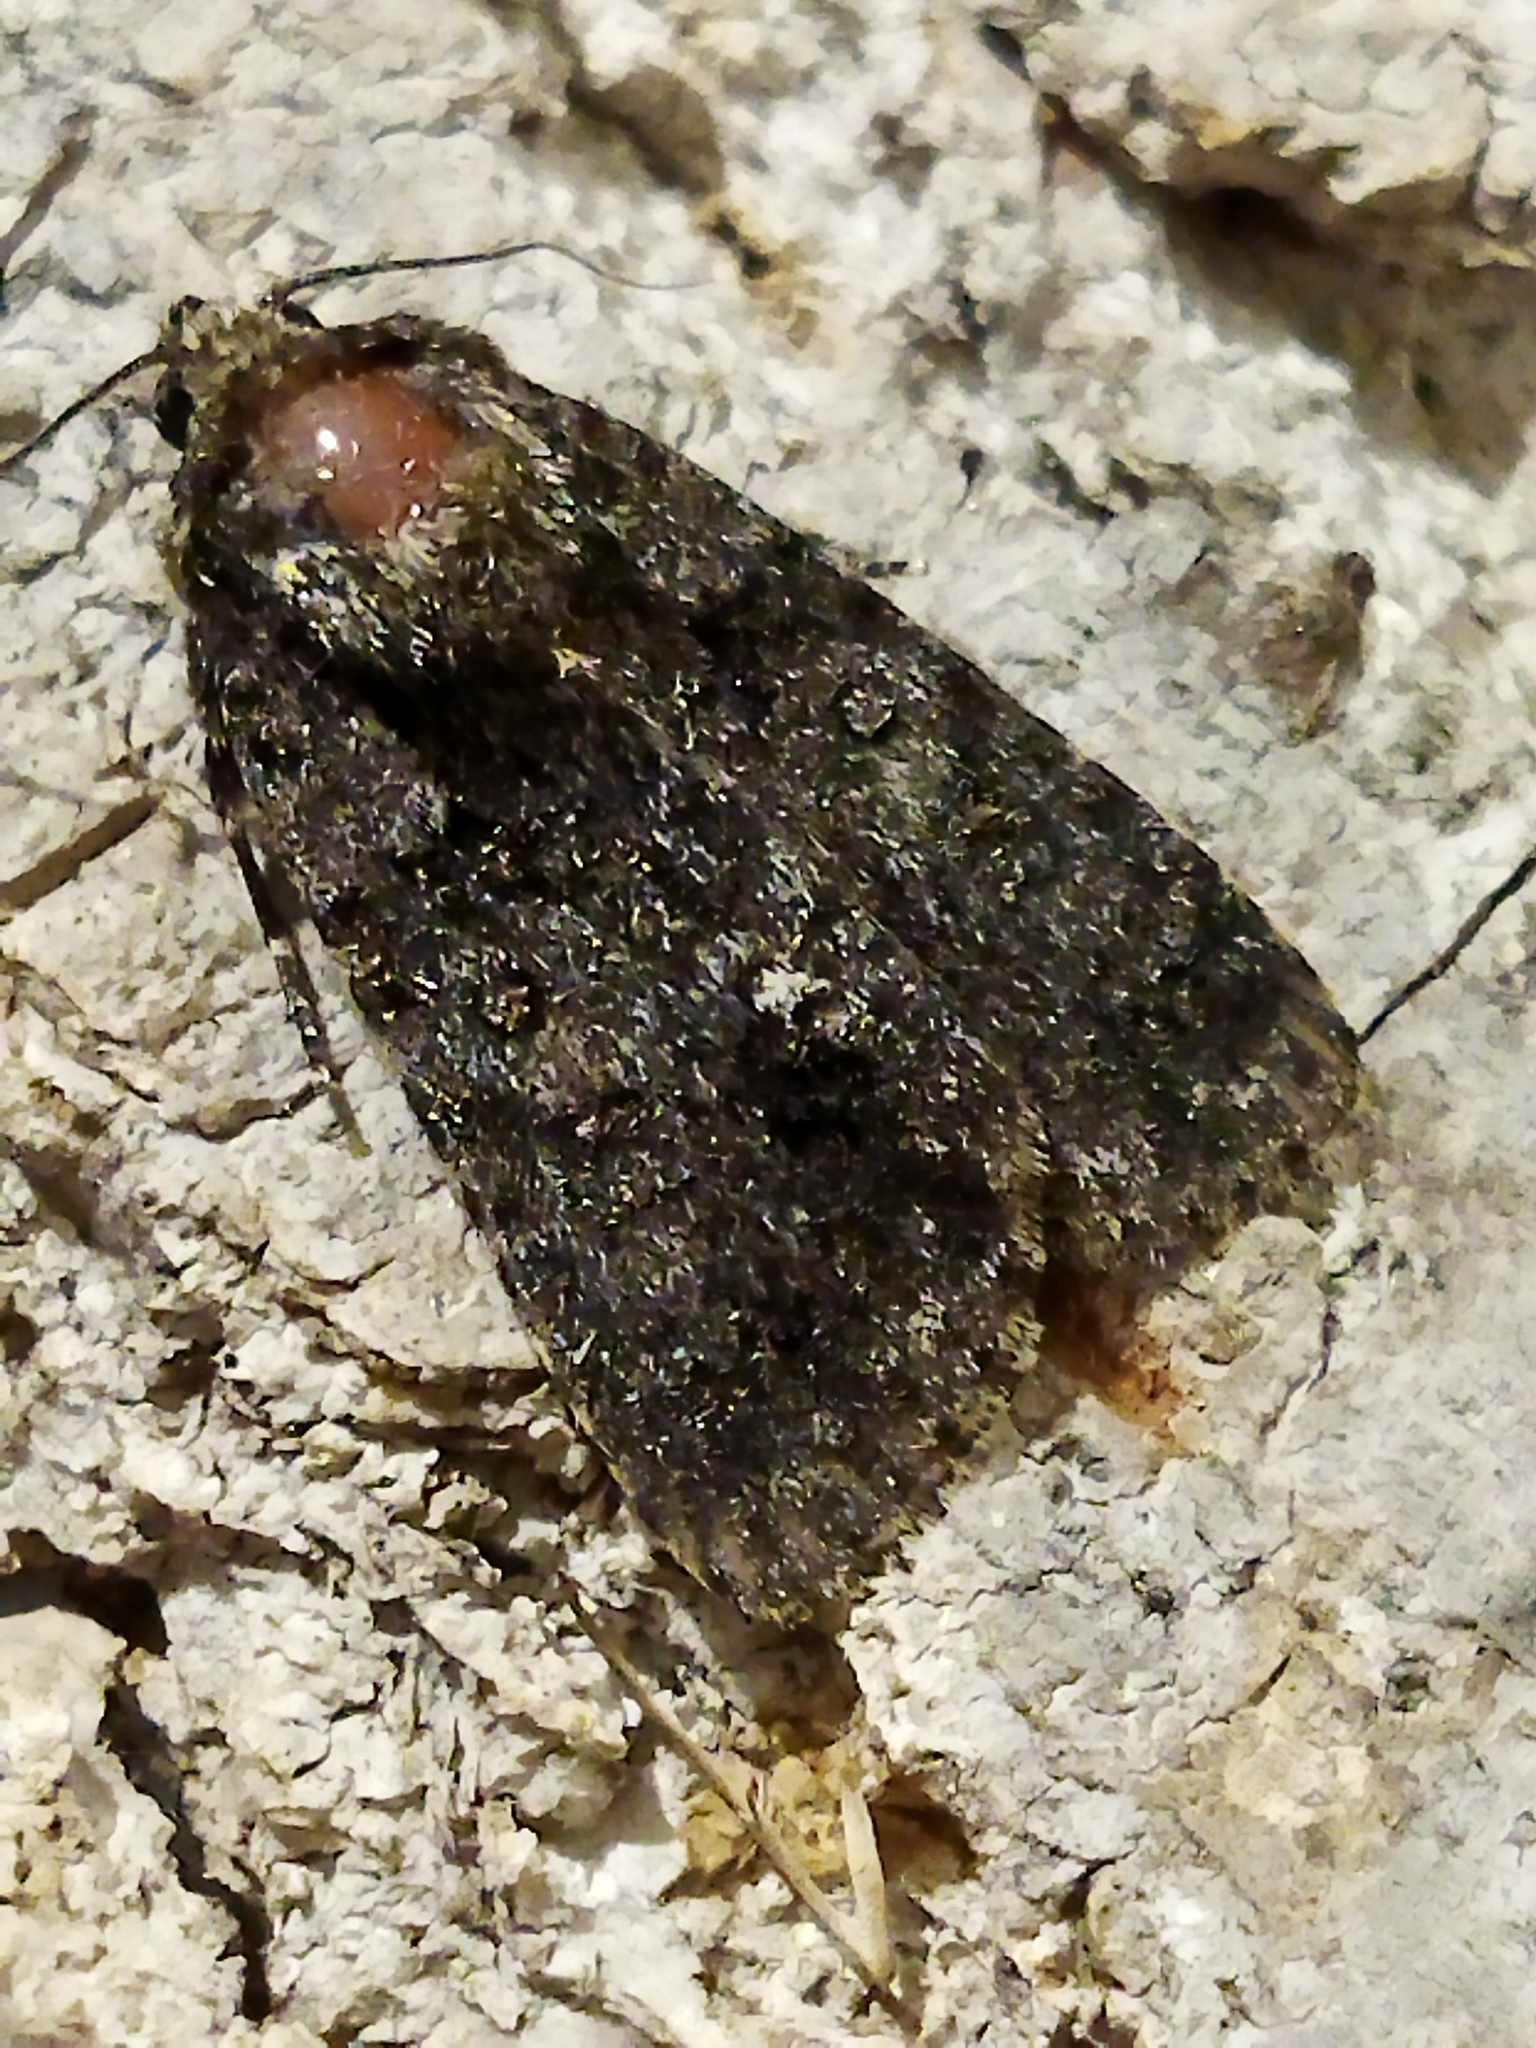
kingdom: Animalia
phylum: Arthropoda
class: Insecta
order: Lepidoptera
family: Noctuidae
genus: Acronicta
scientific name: Acronicta rumicis
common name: Knot grass
